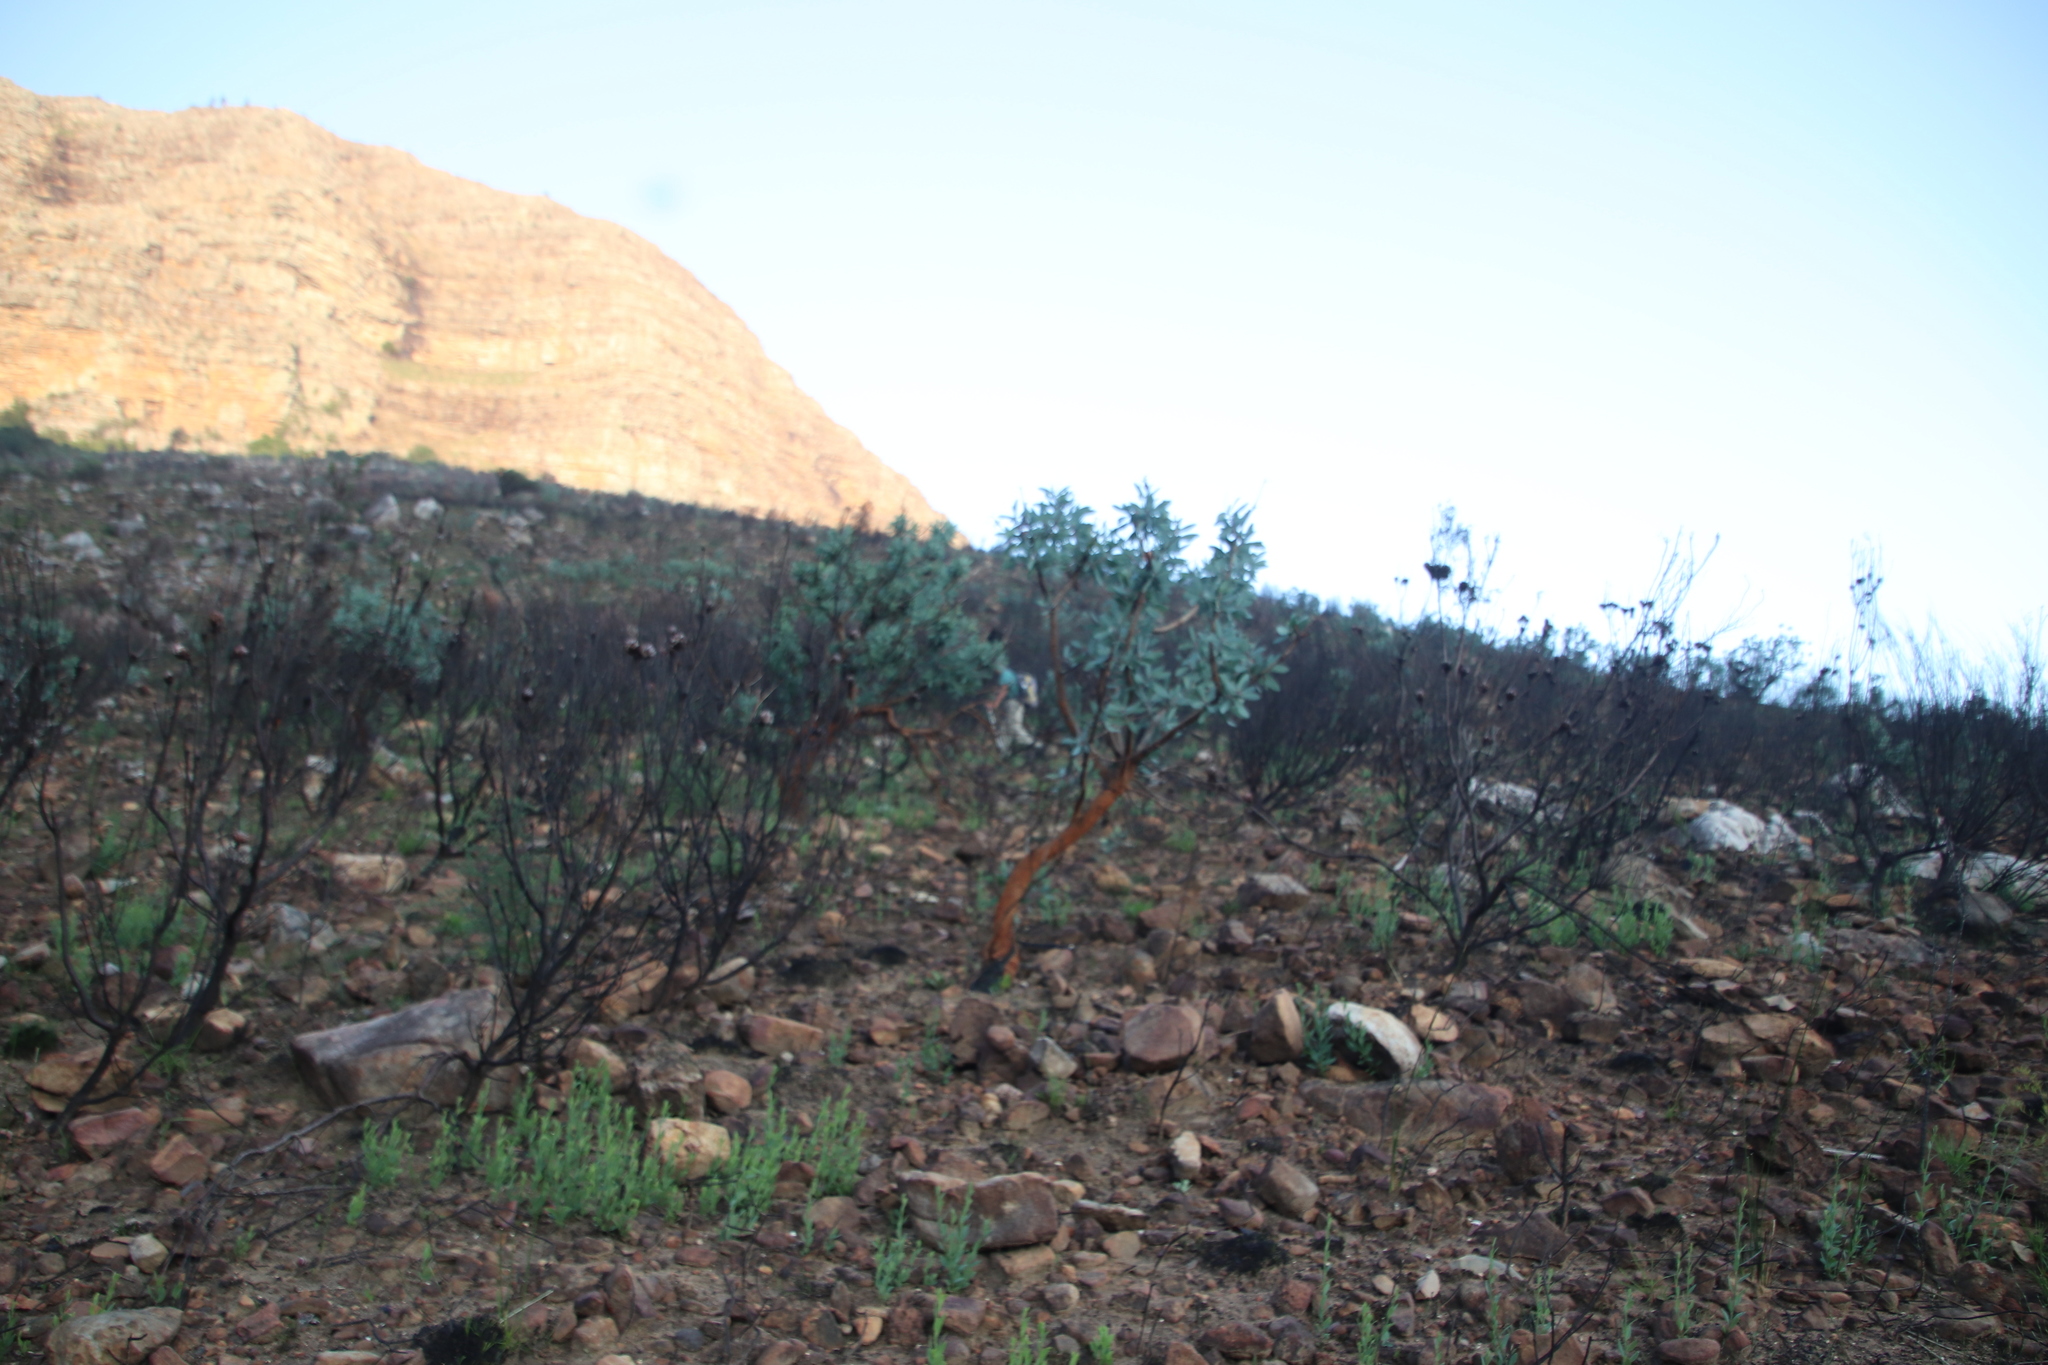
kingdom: Plantae
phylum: Tracheophyta
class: Magnoliopsida
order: Proteales
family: Proteaceae
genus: Protea
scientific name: Protea nitida
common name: Tree protea
